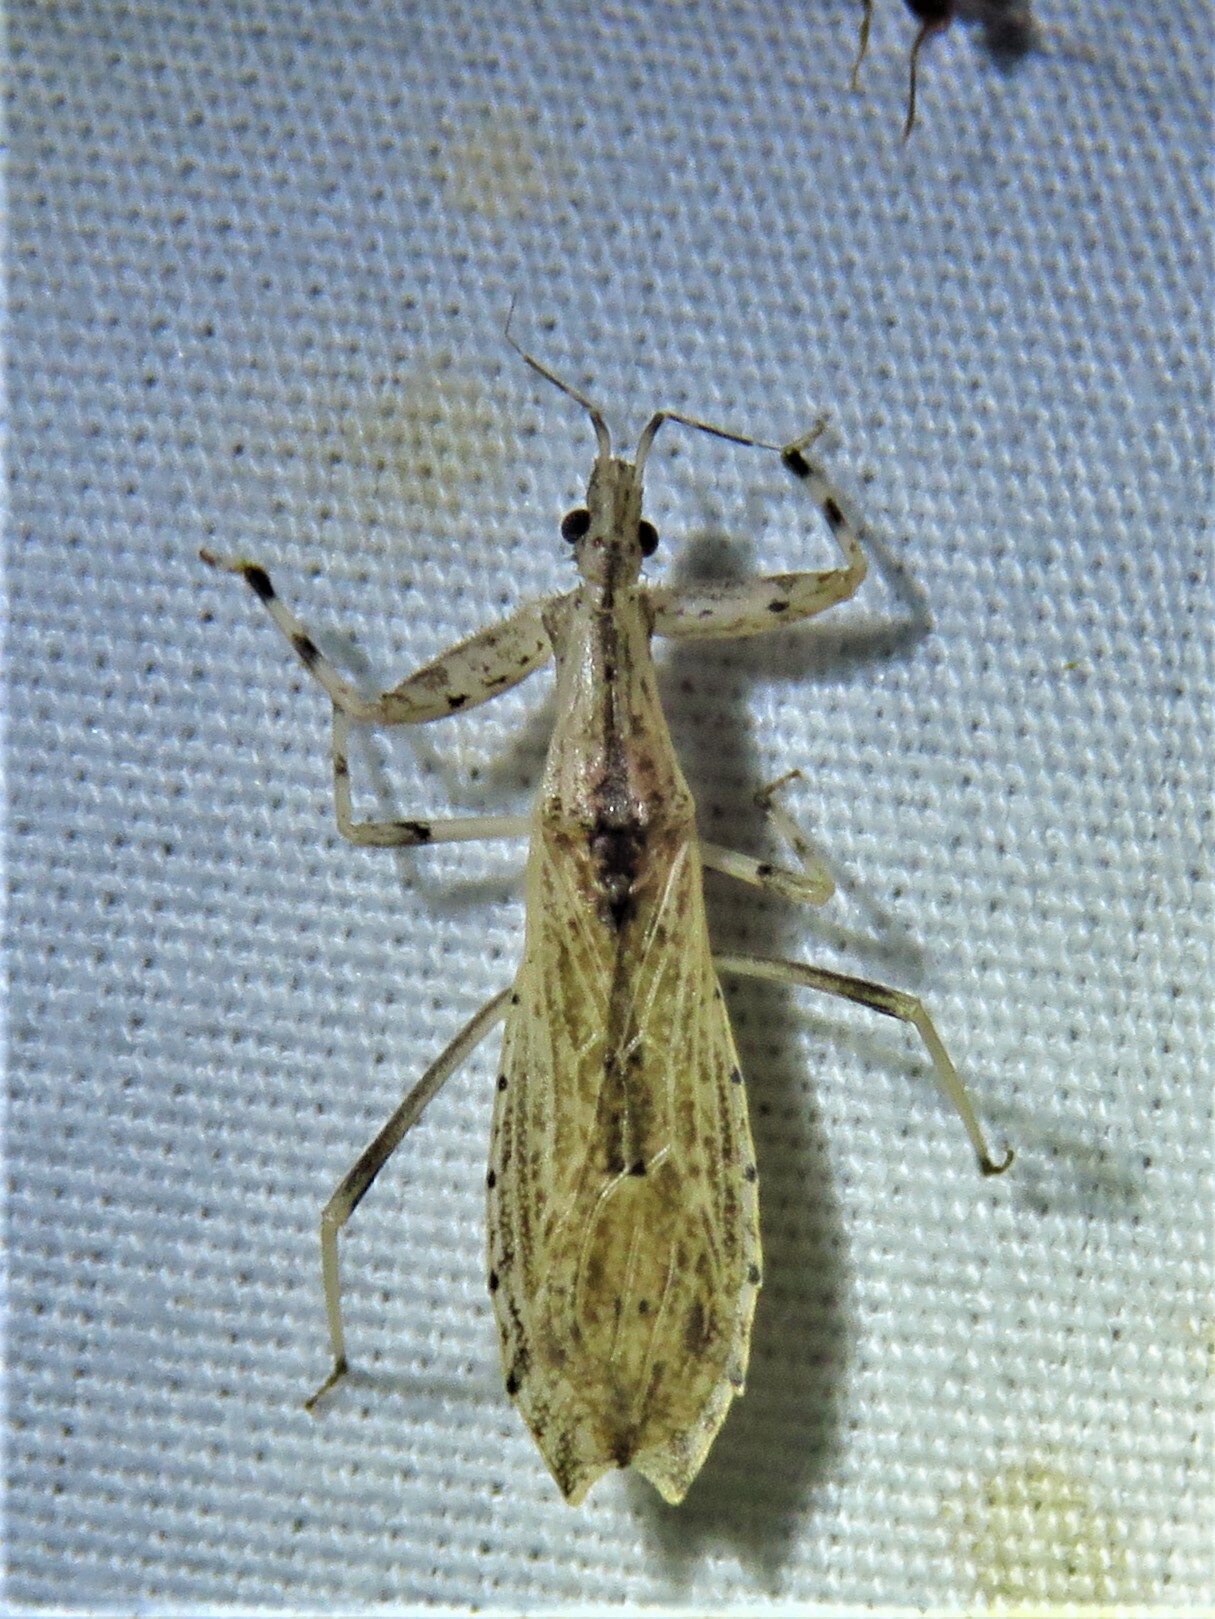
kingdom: Animalia
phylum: Arthropoda
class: Insecta
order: Hemiptera
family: Reduviidae
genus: Ctenotrachelus
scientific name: Ctenotrachelus shermani
